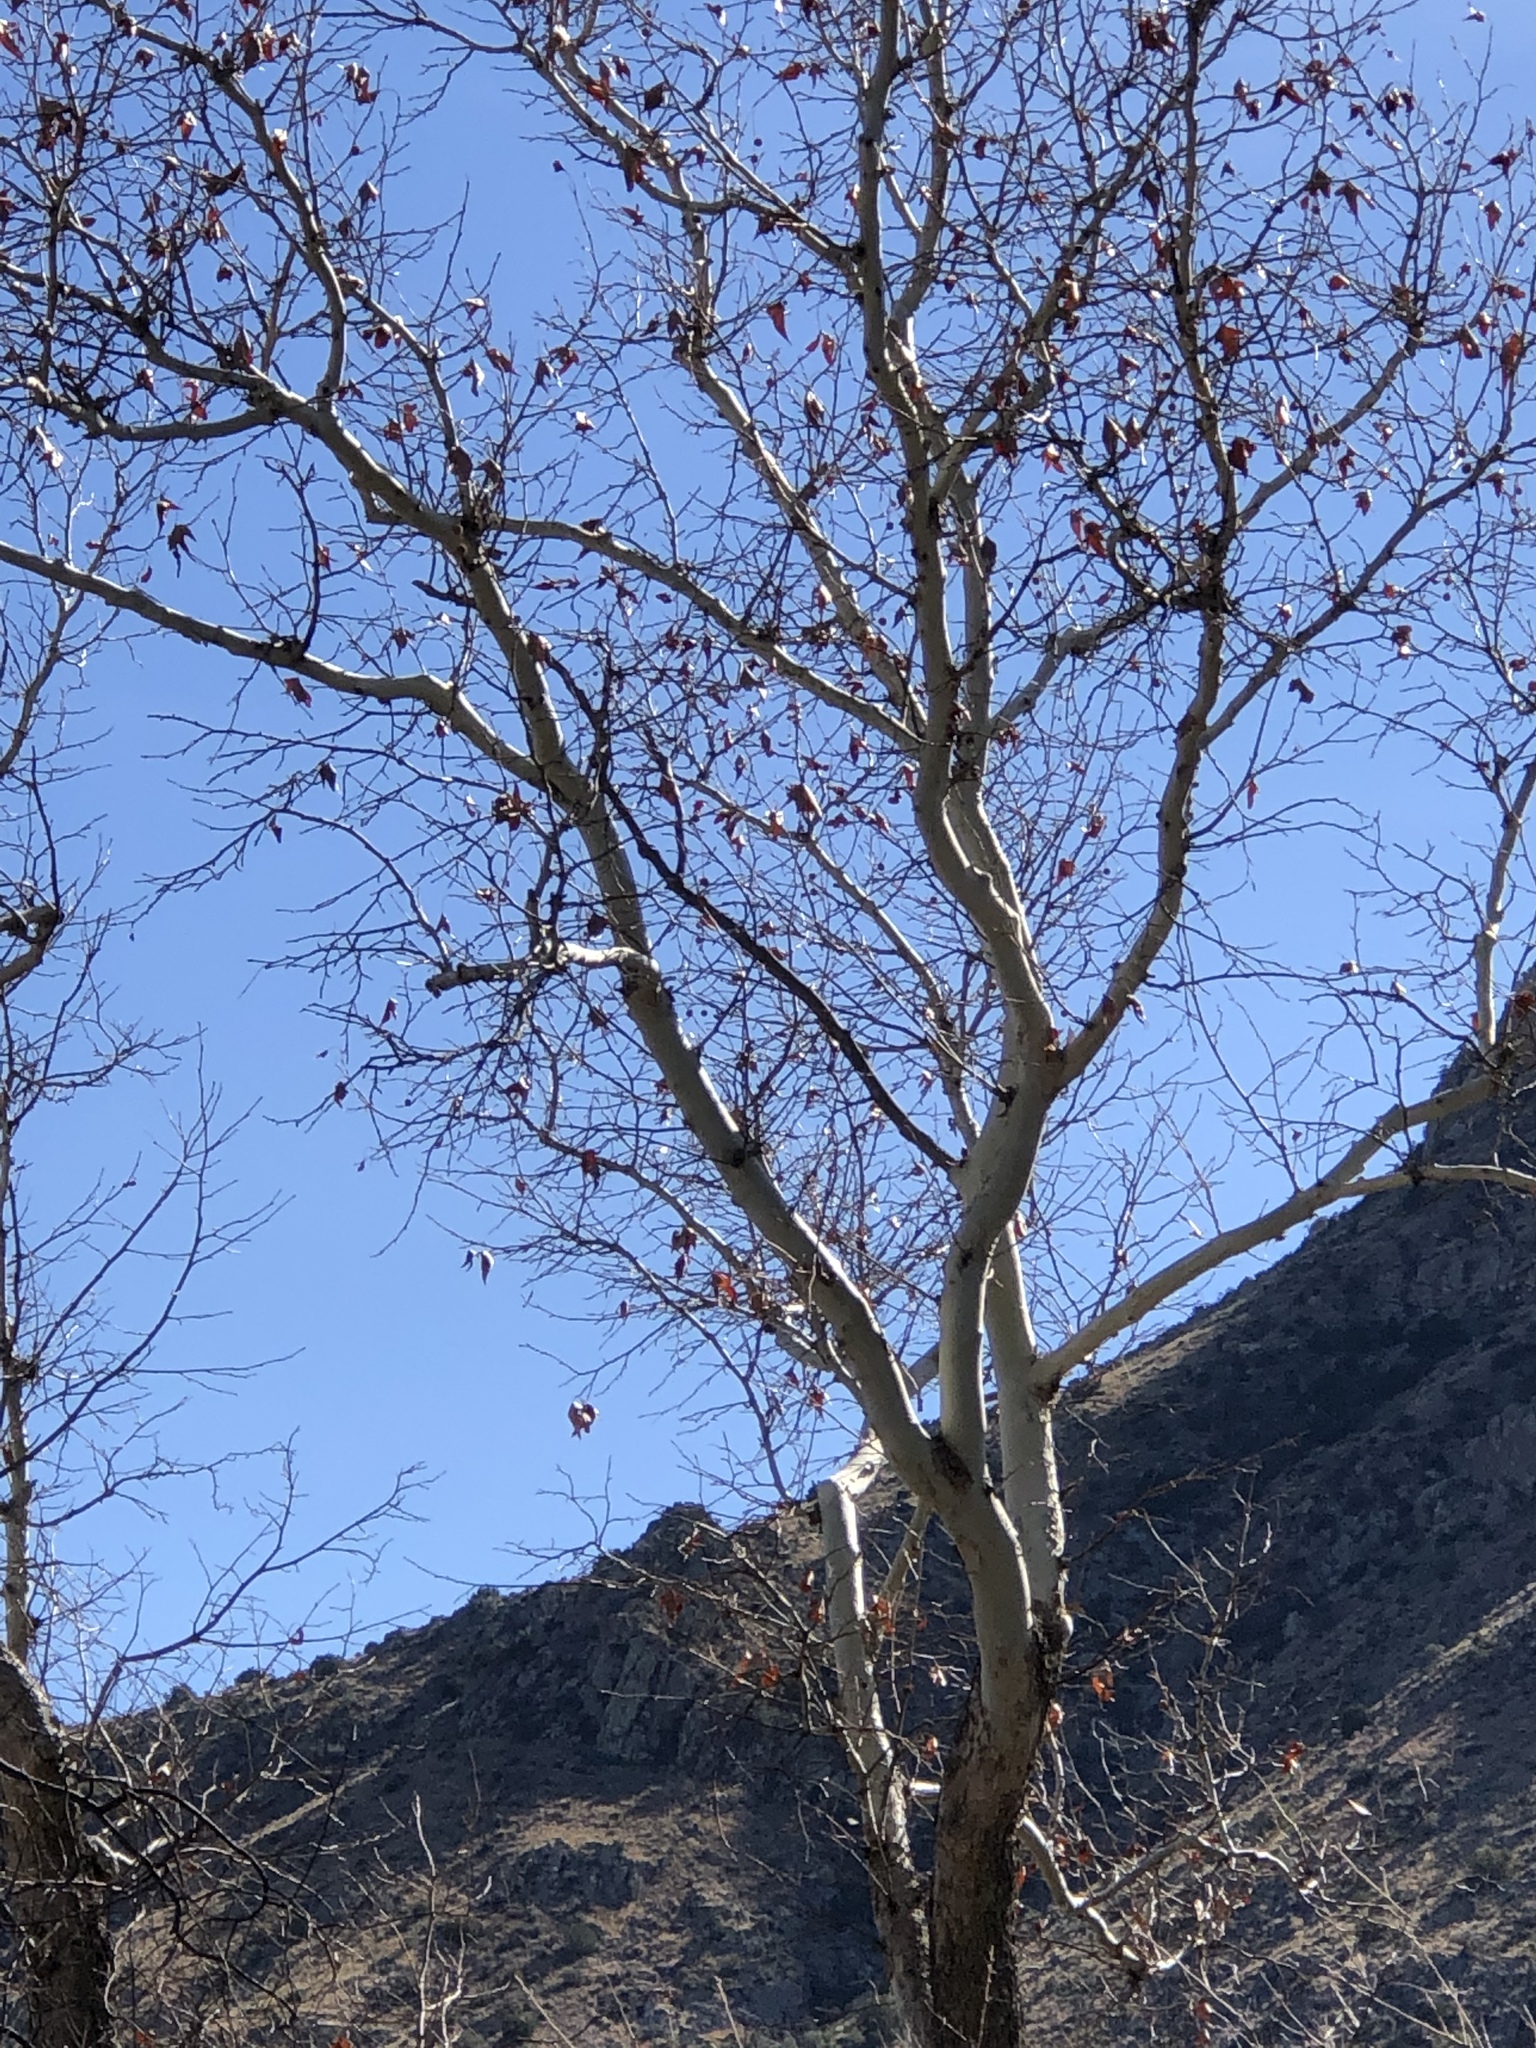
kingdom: Plantae
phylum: Tracheophyta
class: Magnoliopsida
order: Proteales
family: Platanaceae
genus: Platanus
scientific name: Platanus wrightii
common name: Arizona sycamore
